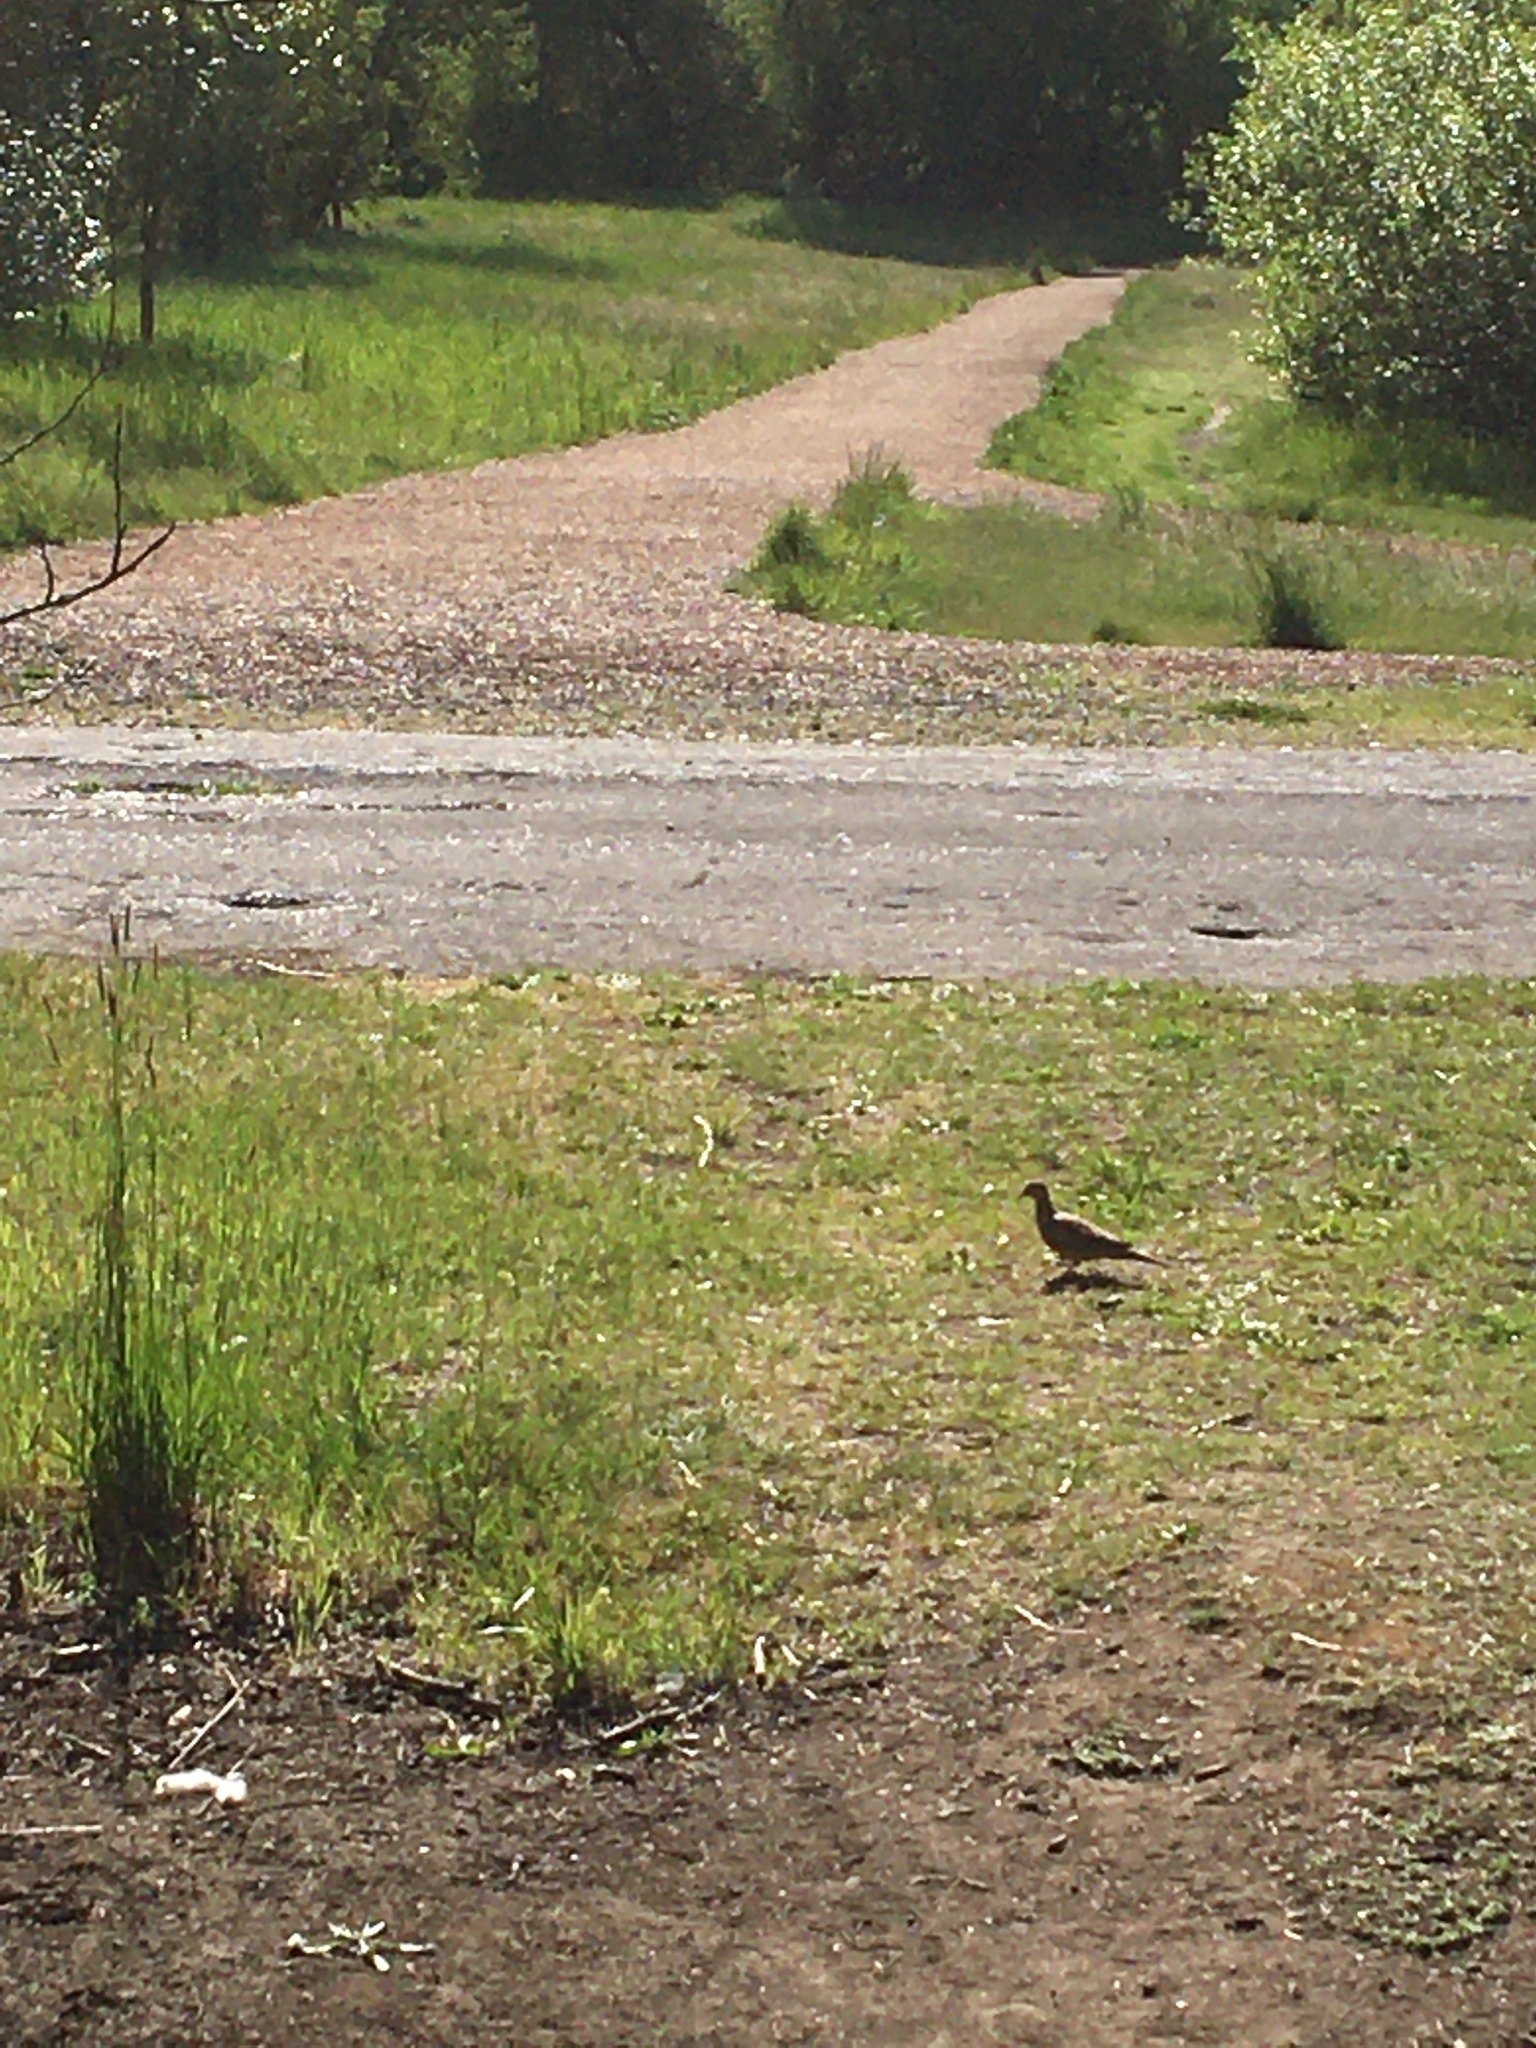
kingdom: Animalia
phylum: Chordata
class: Aves
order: Columbiformes
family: Columbidae
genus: Zenaida
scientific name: Zenaida macroura
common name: Mourning dove
